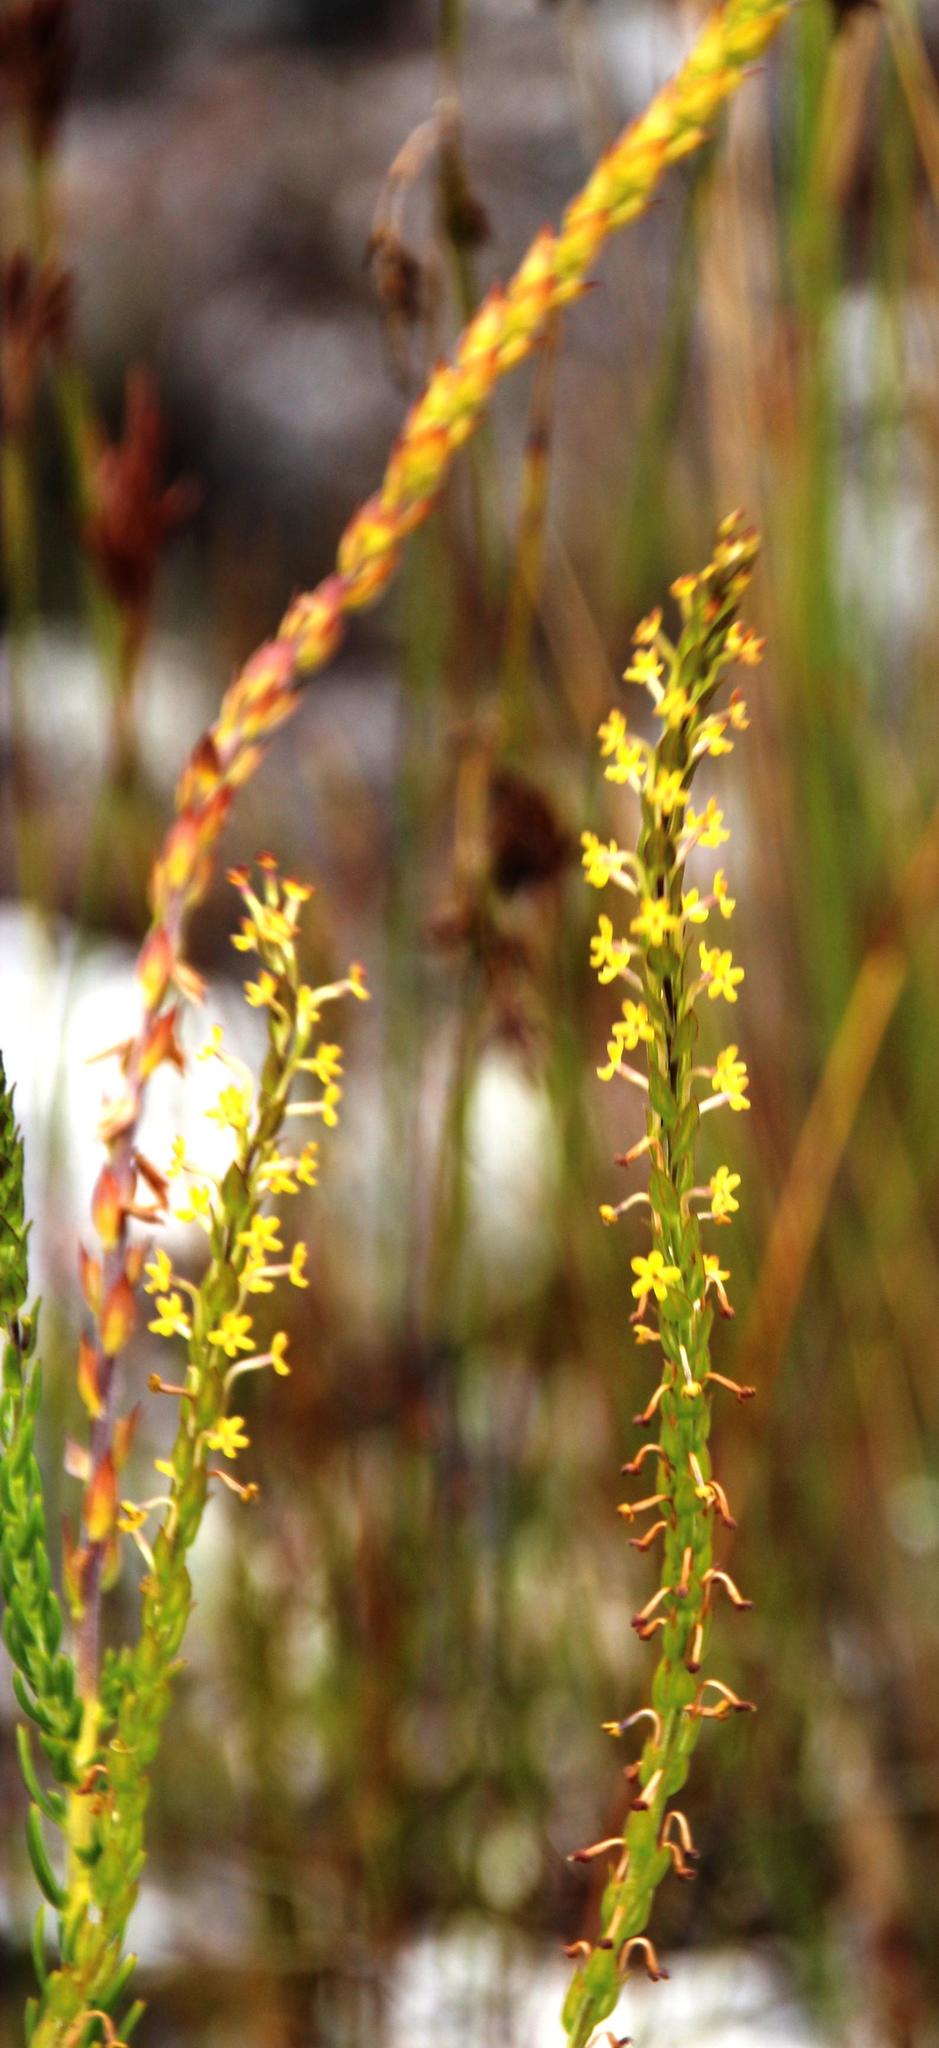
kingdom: Plantae
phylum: Tracheophyta
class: Magnoliopsida
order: Lamiales
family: Scrophulariaceae
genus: Microdon
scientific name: Microdon dubius
